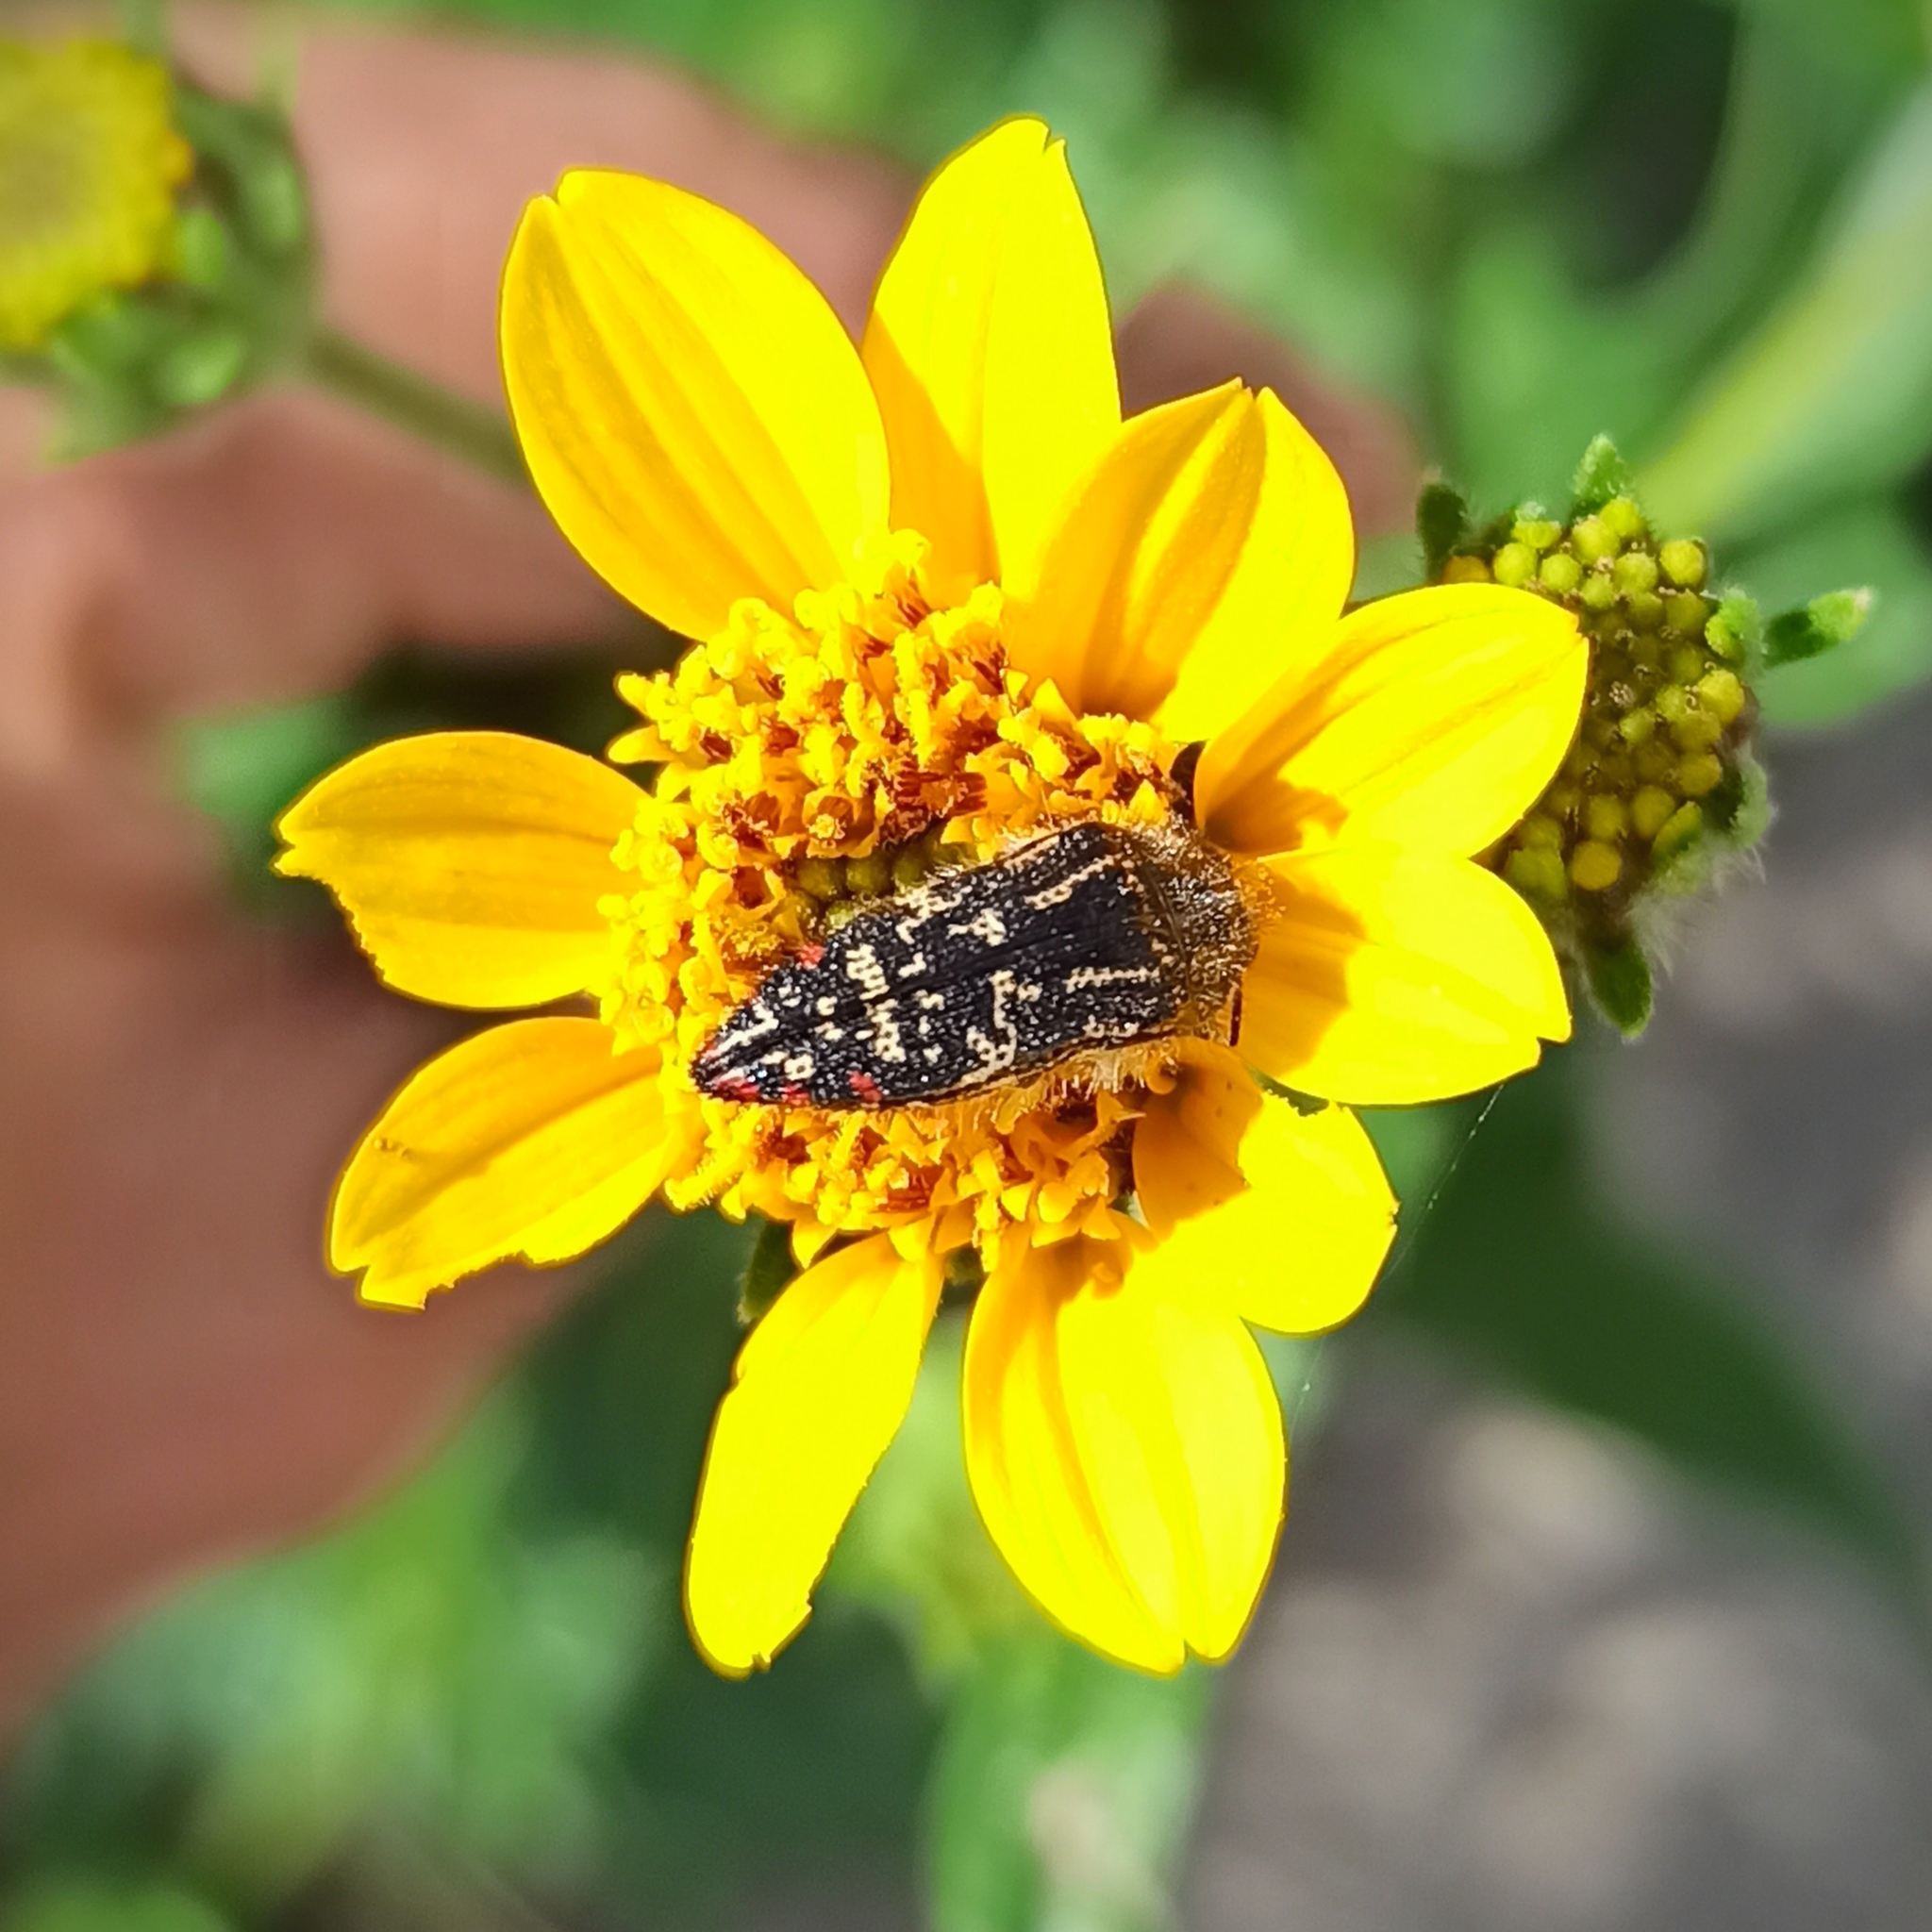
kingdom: Animalia
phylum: Arthropoda
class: Insecta
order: Coleoptera
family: Buprestidae
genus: Acmaeodera
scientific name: Acmaeodera mudgei
